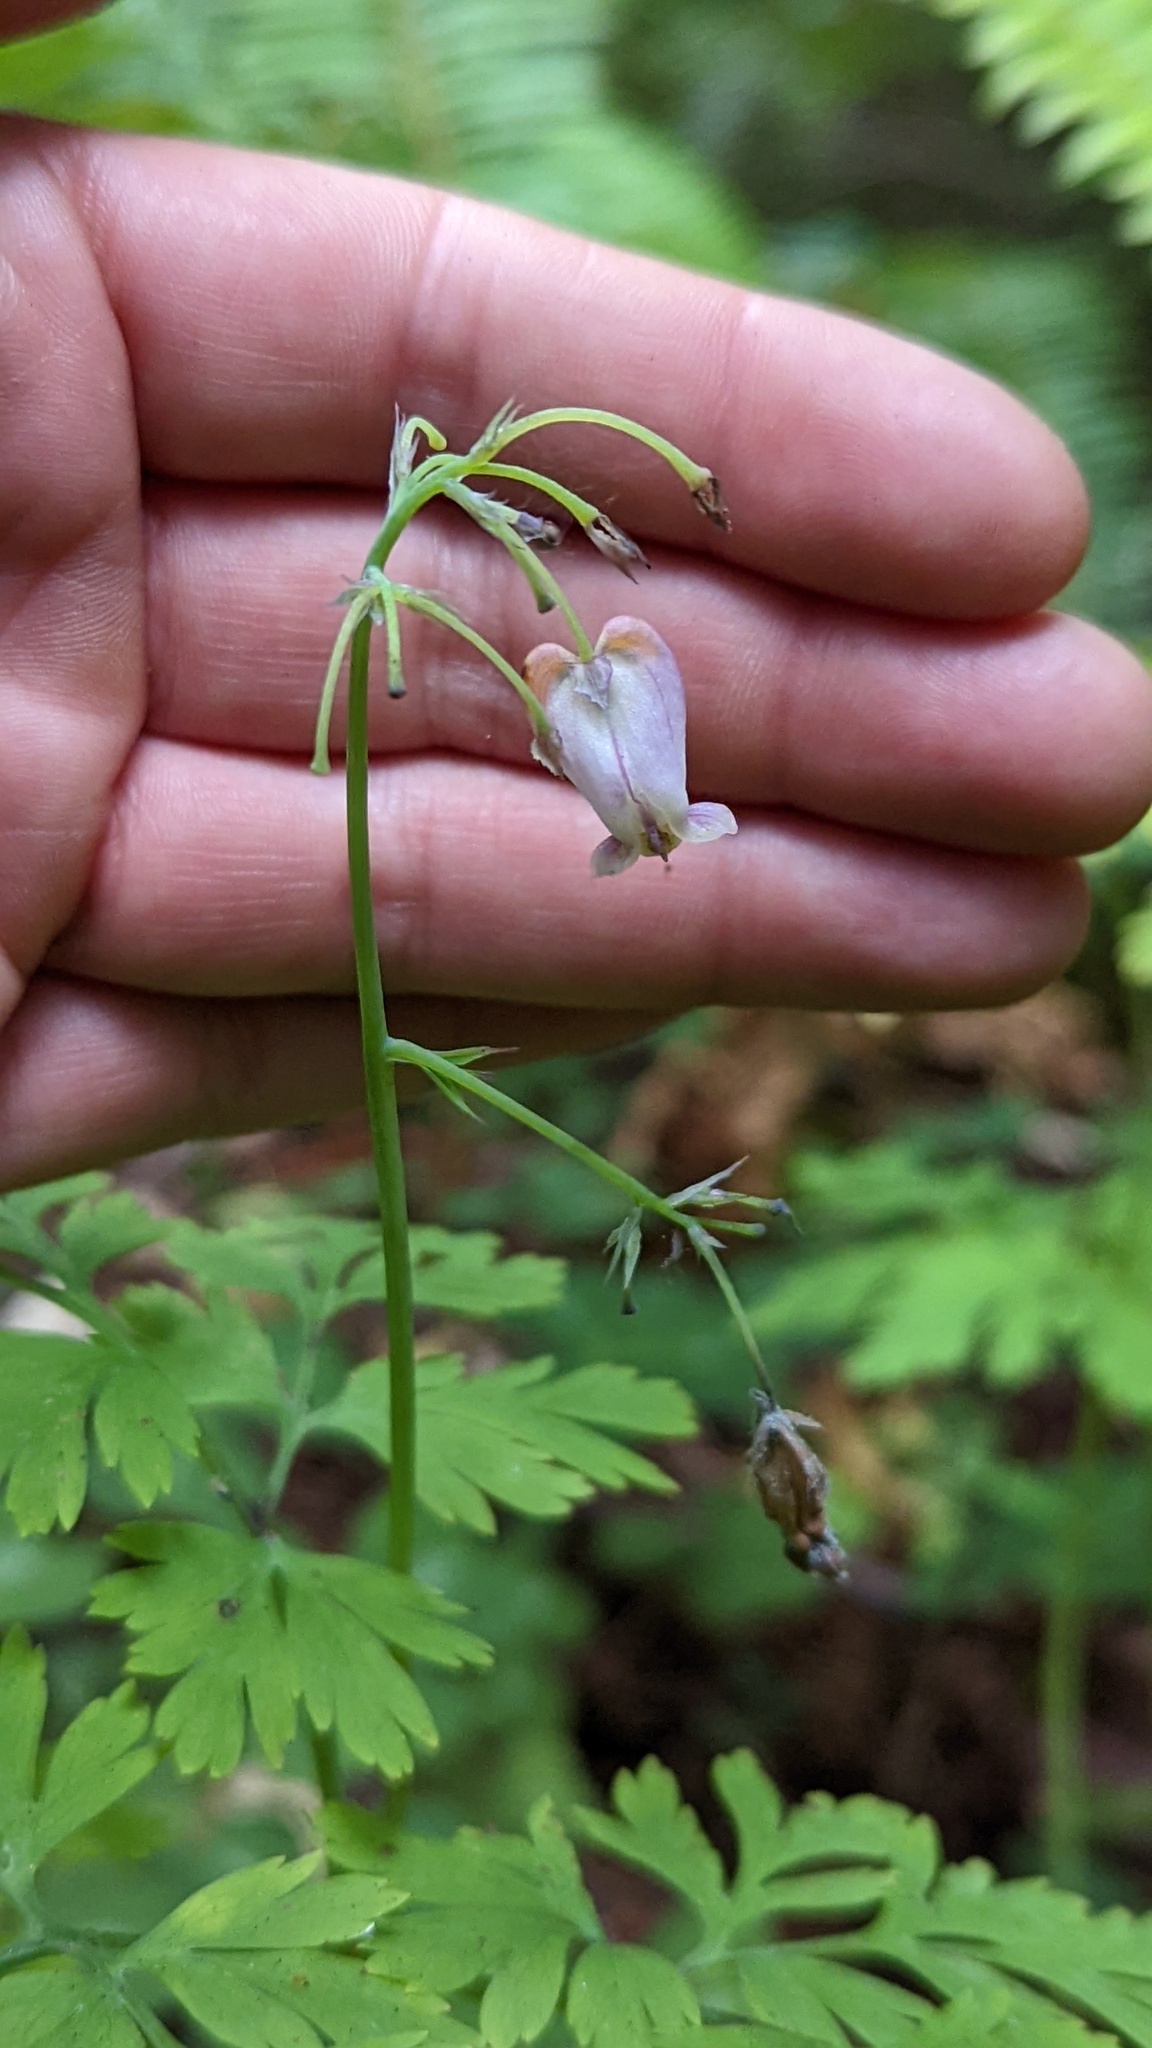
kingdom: Plantae
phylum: Tracheophyta
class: Magnoliopsida
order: Ranunculales
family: Papaveraceae
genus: Dicentra
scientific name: Dicentra formosa
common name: Bleeding-heart
